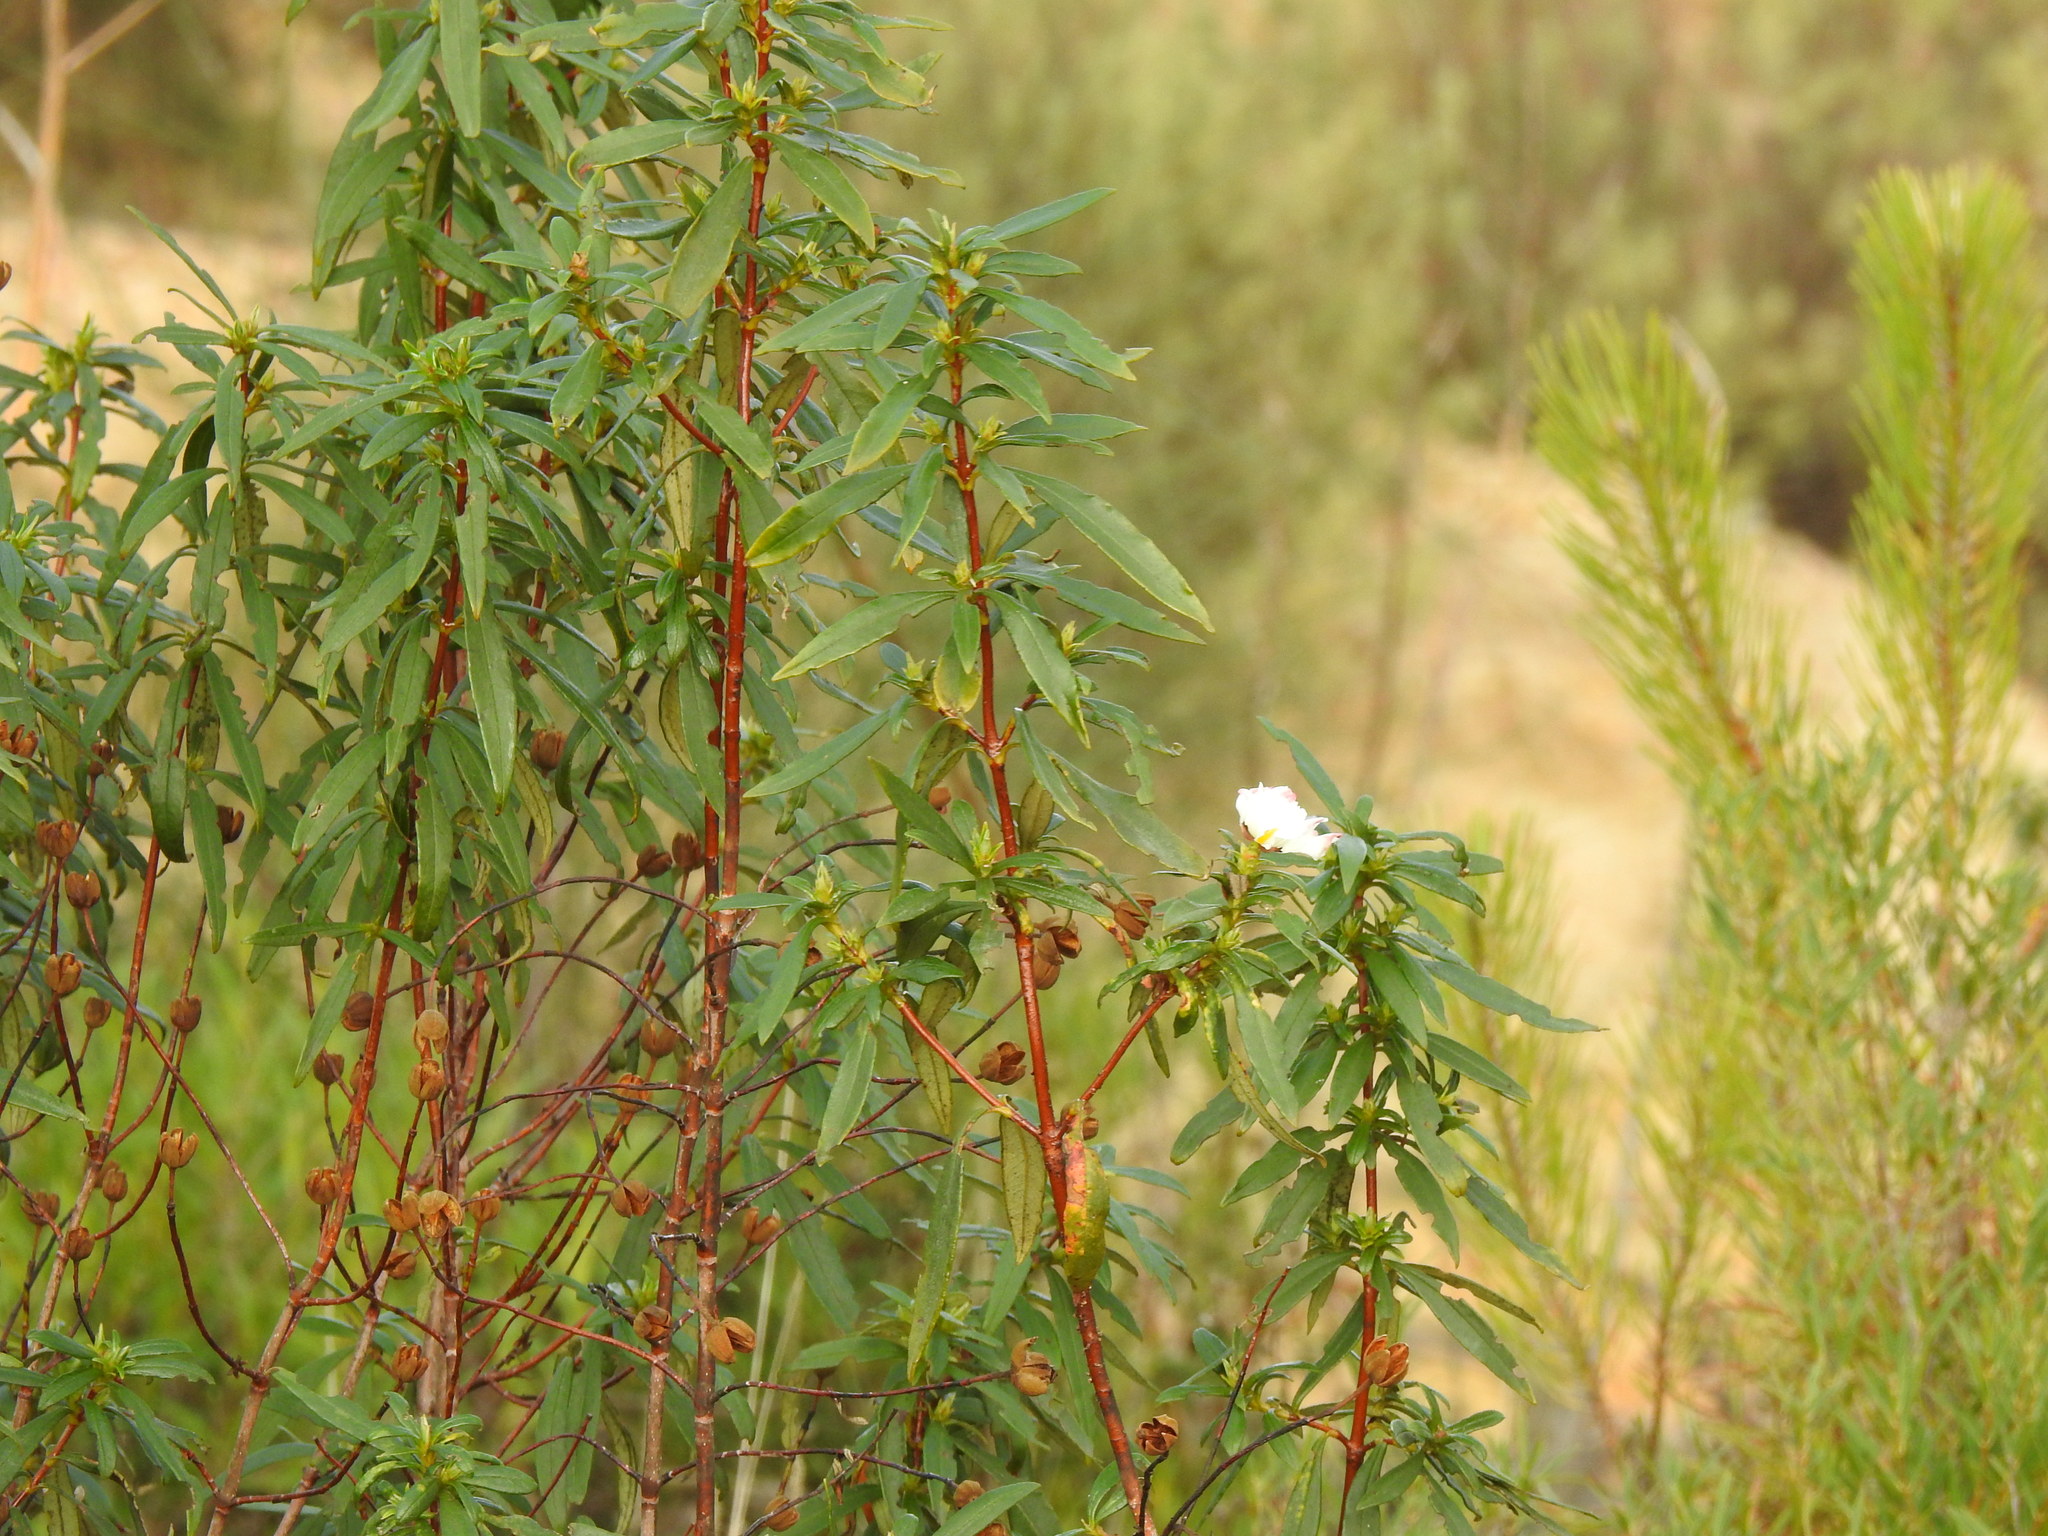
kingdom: Plantae
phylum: Tracheophyta
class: Magnoliopsida
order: Malvales
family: Cistaceae
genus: Cistus
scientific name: Cistus ladanifer
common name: Common gum cistus
